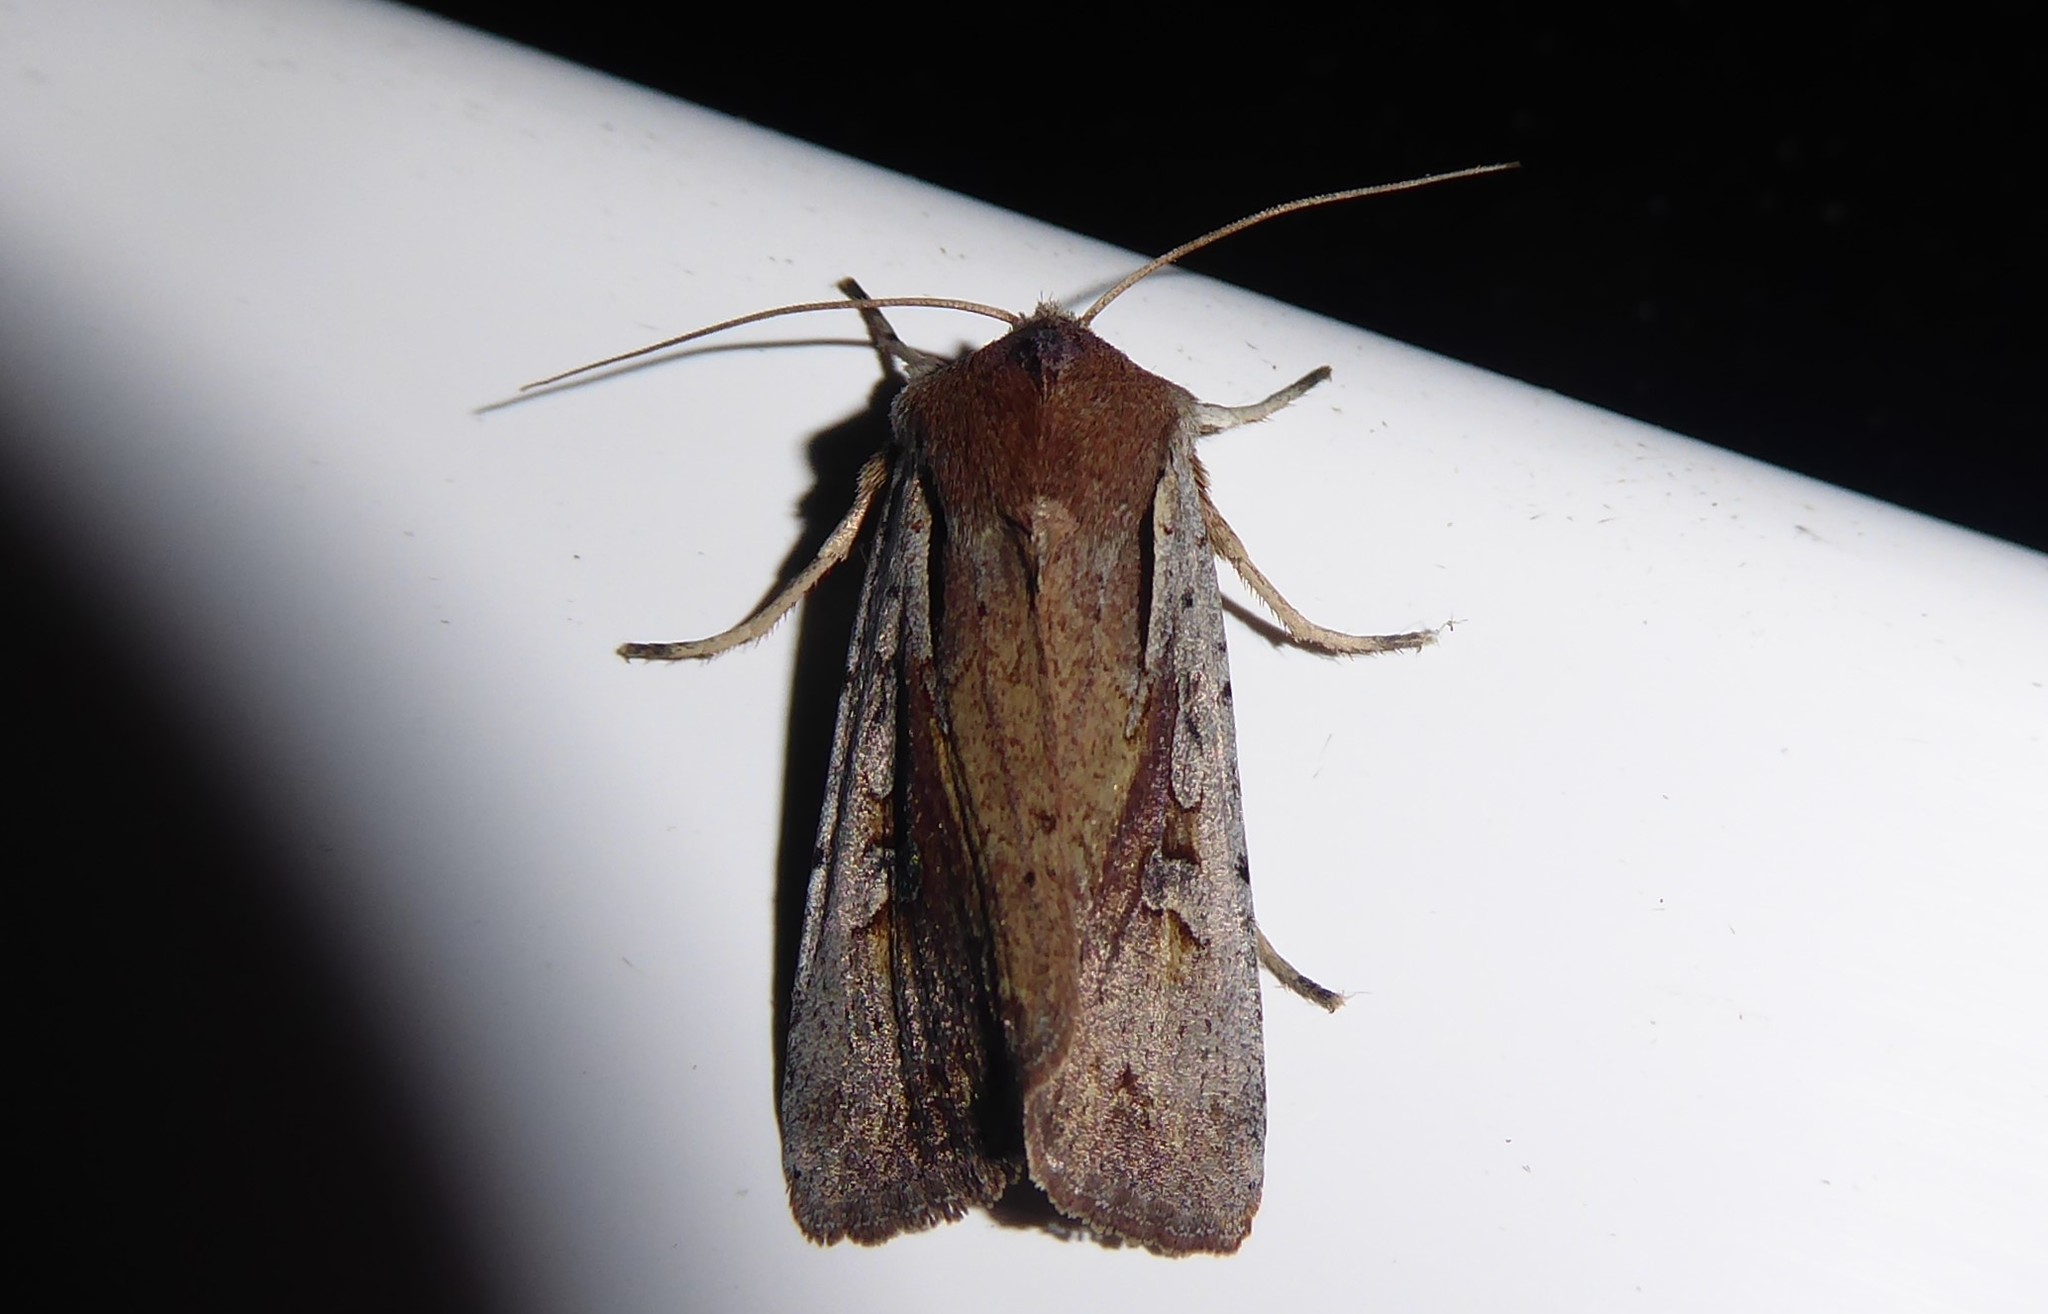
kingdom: Animalia
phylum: Arthropoda
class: Insecta
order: Lepidoptera
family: Noctuidae
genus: Ichneutica
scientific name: Ichneutica atristriga
